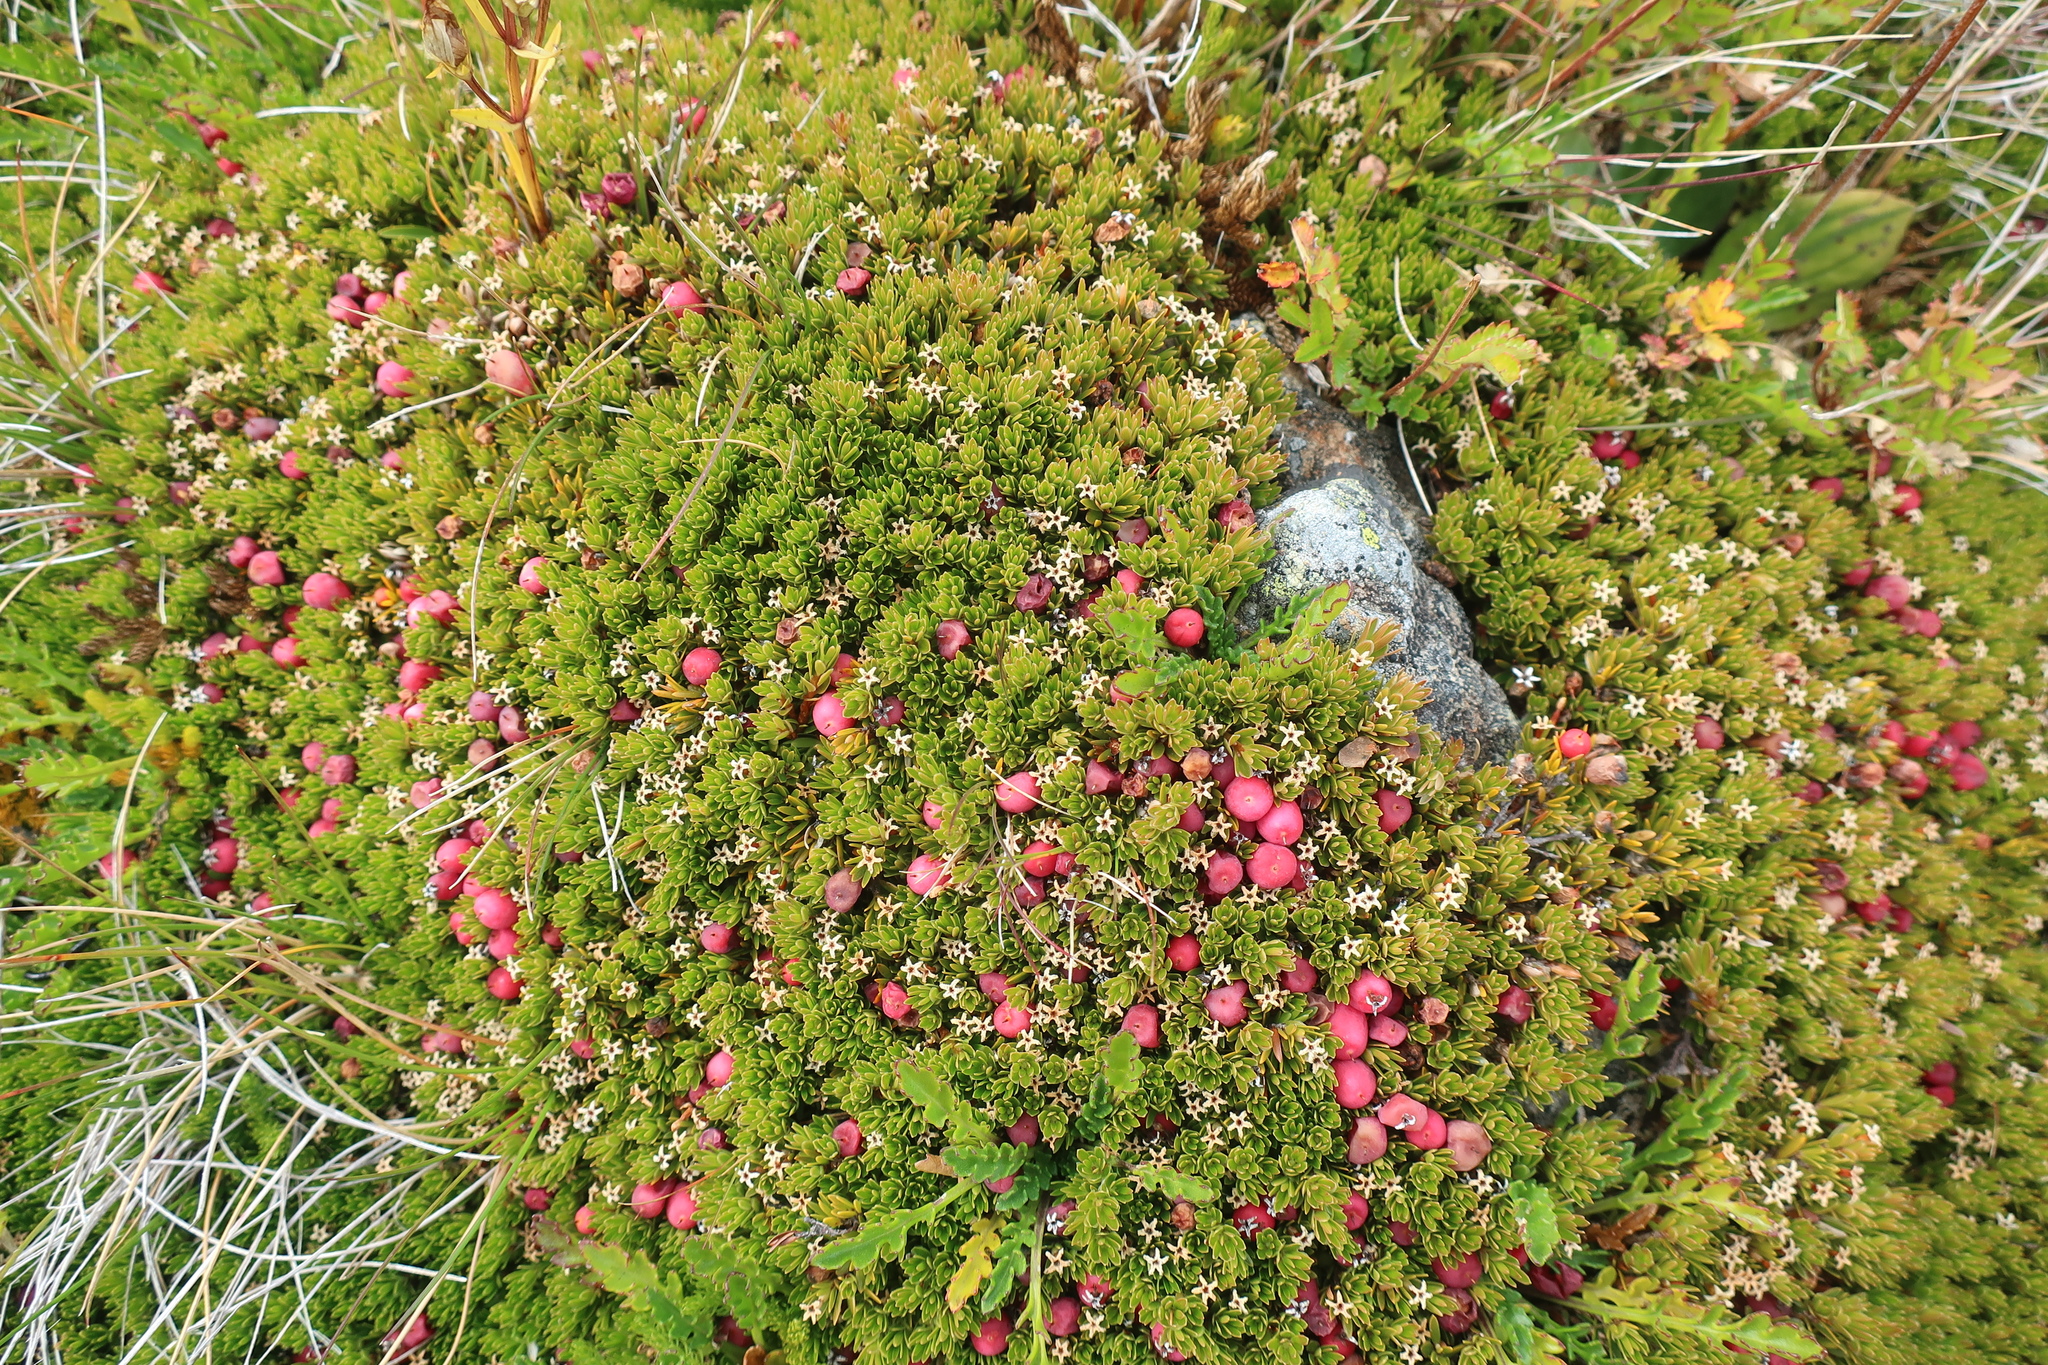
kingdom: Plantae
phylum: Tracheophyta
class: Magnoliopsida
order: Ericales
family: Ericaceae
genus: Pentachondra
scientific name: Pentachondra pumila
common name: Carpet-heath
